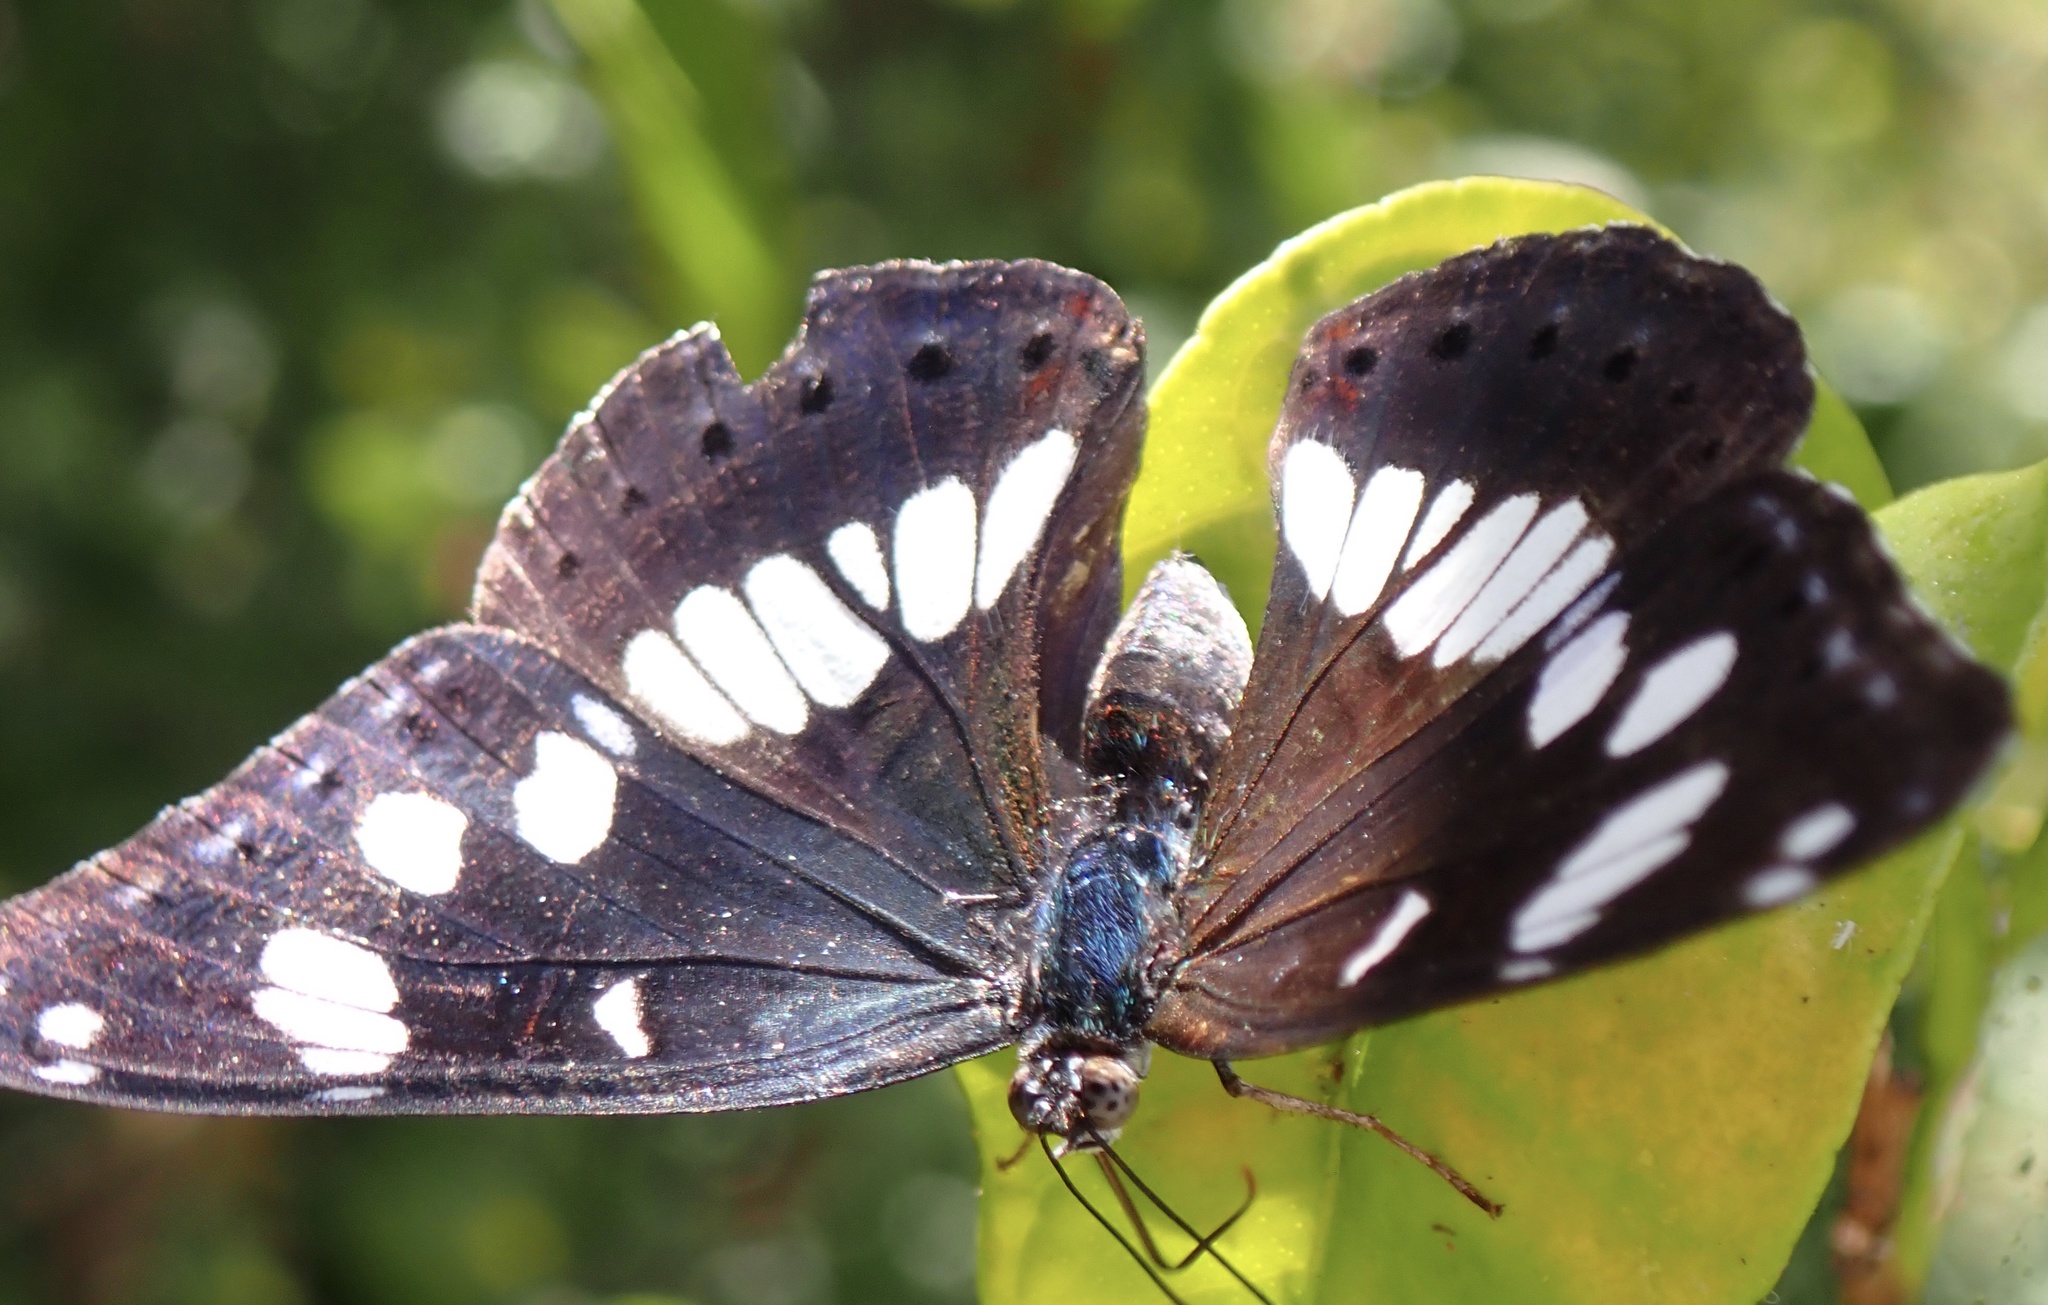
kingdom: Animalia
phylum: Arthropoda
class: Insecta
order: Lepidoptera
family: Nymphalidae
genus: Limenitis
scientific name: Limenitis reducta
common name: Southern white admiral
